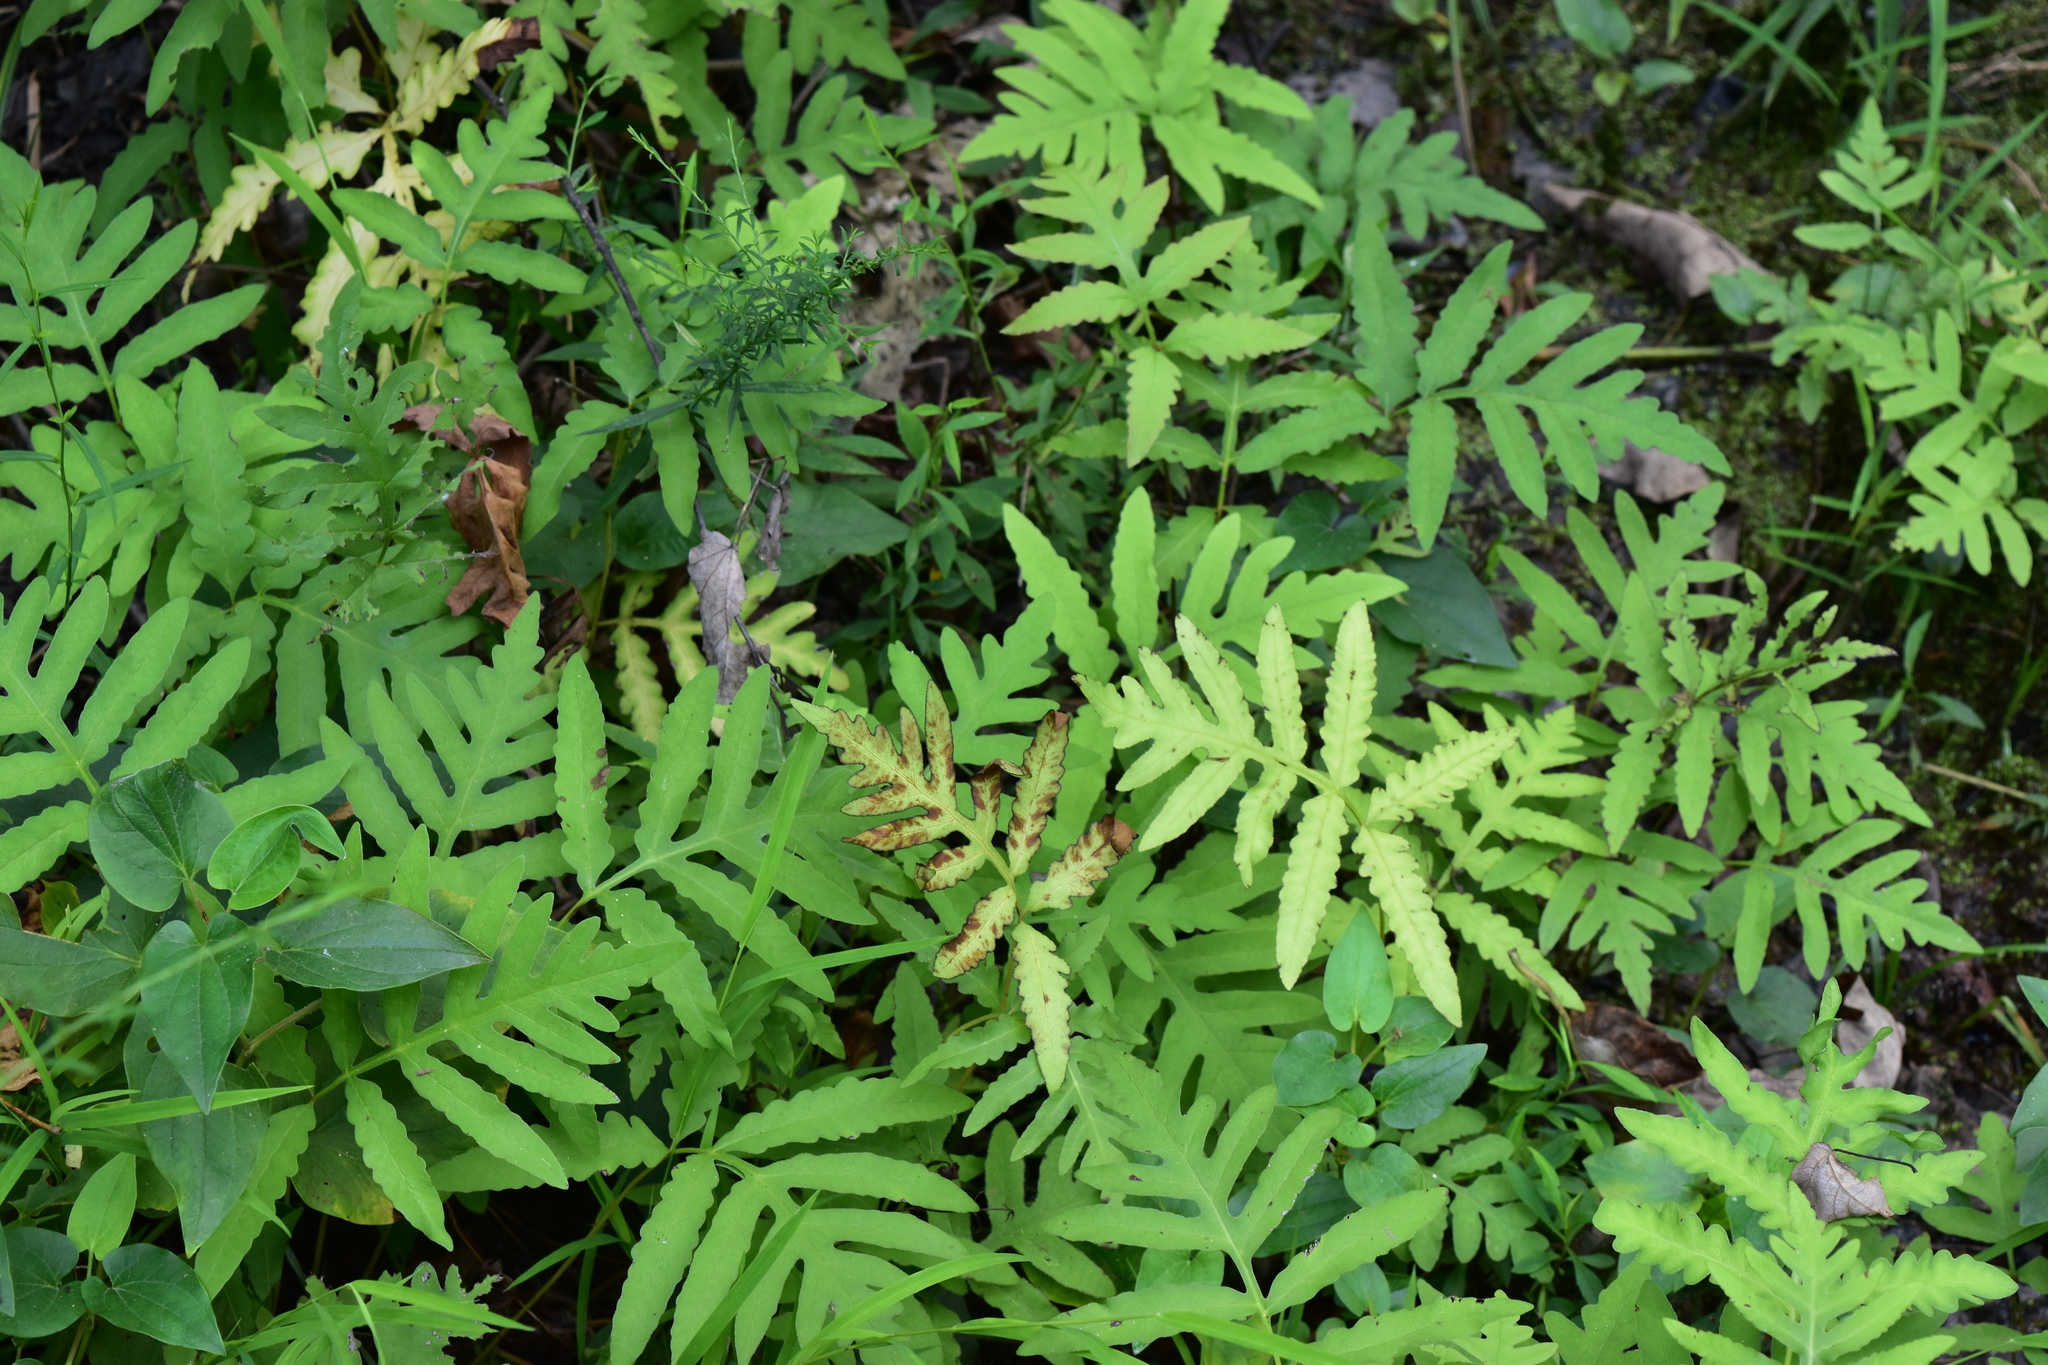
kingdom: Plantae
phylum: Tracheophyta
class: Polypodiopsida
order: Polypodiales
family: Onocleaceae
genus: Onoclea
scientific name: Onoclea sensibilis
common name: Sensitive fern
